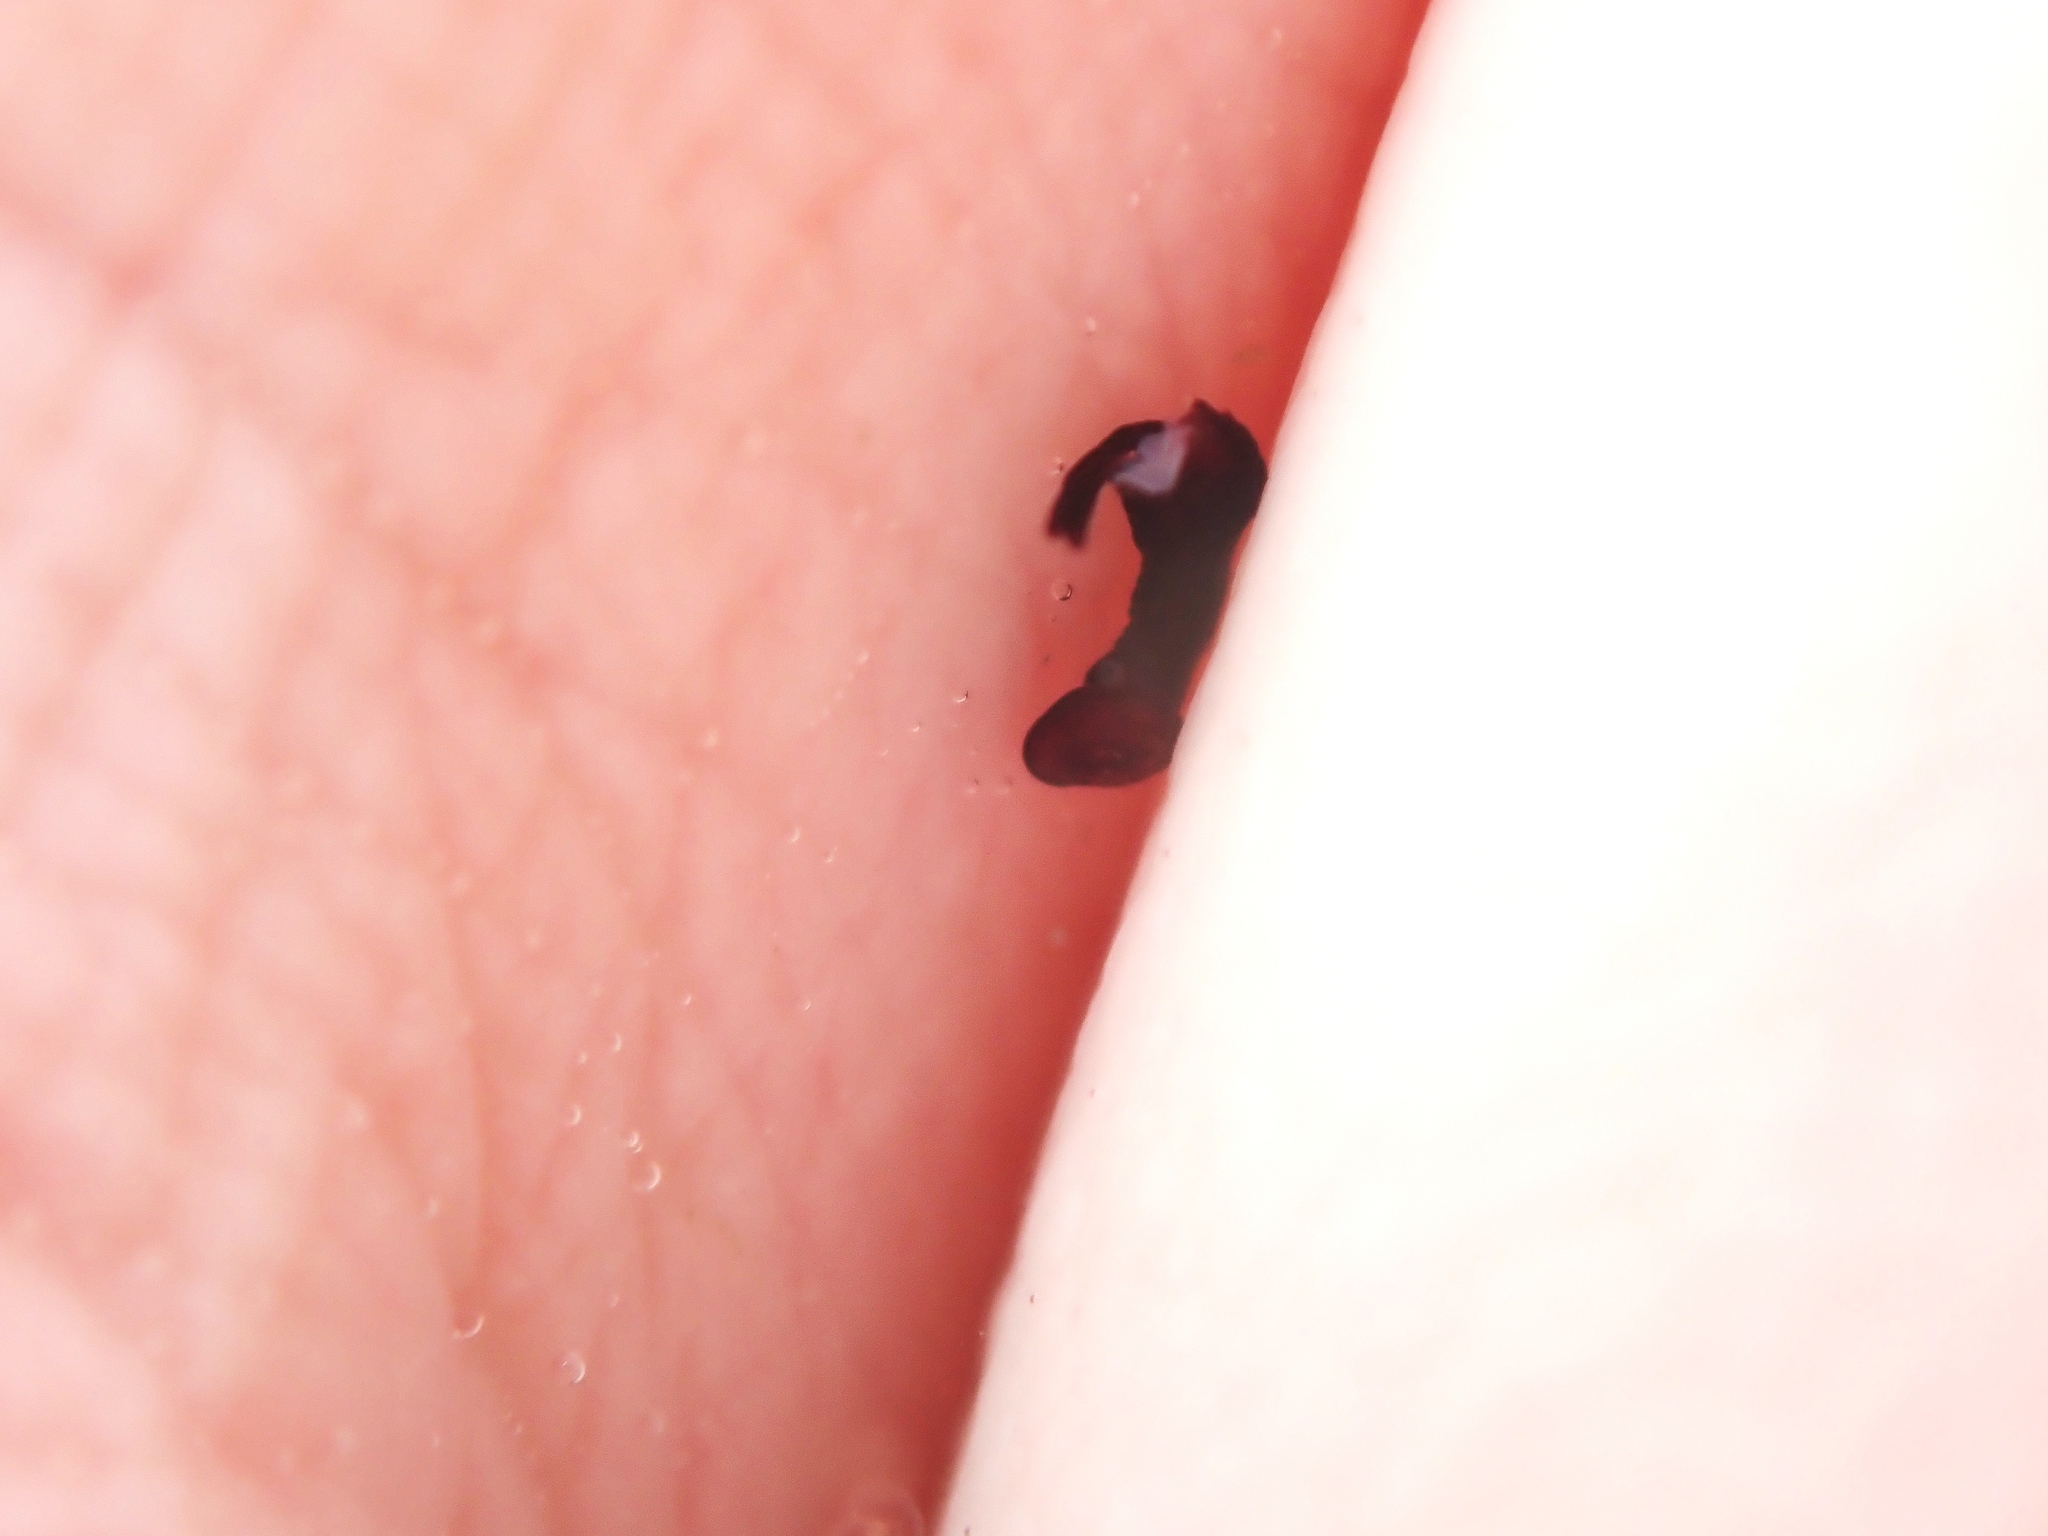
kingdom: Animalia
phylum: Echinodermata
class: Echinoidea
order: Camarodonta
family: Echinometridae
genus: Evechinus
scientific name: Evechinus chloroticus
